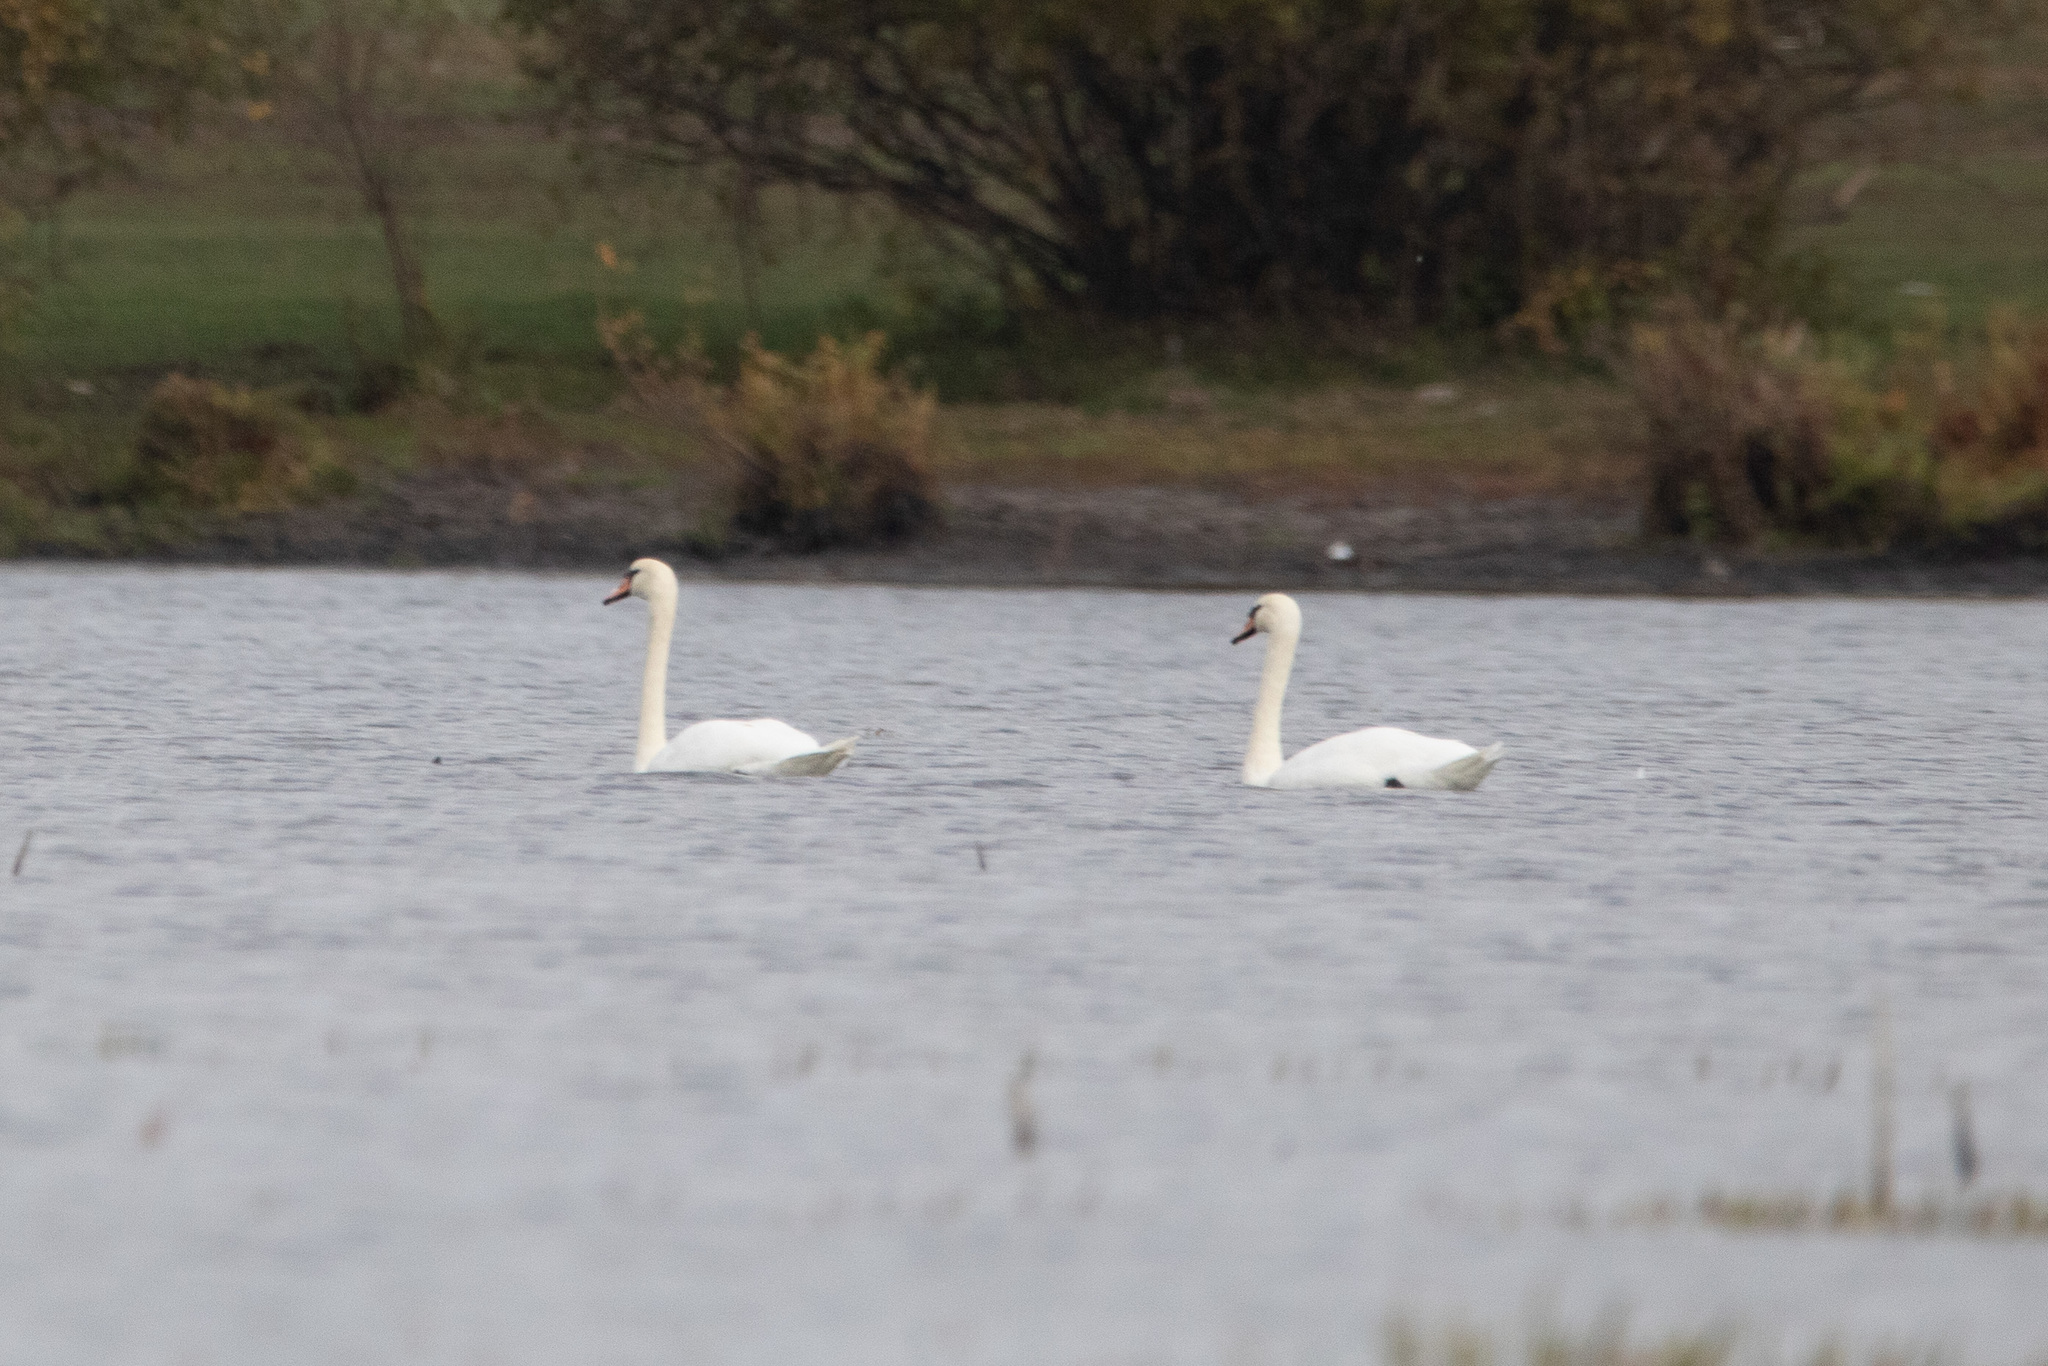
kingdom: Animalia
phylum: Chordata
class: Aves
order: Anseriformes
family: Anatidae
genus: Cygnus
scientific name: Cygnus olor
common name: Mute swan
